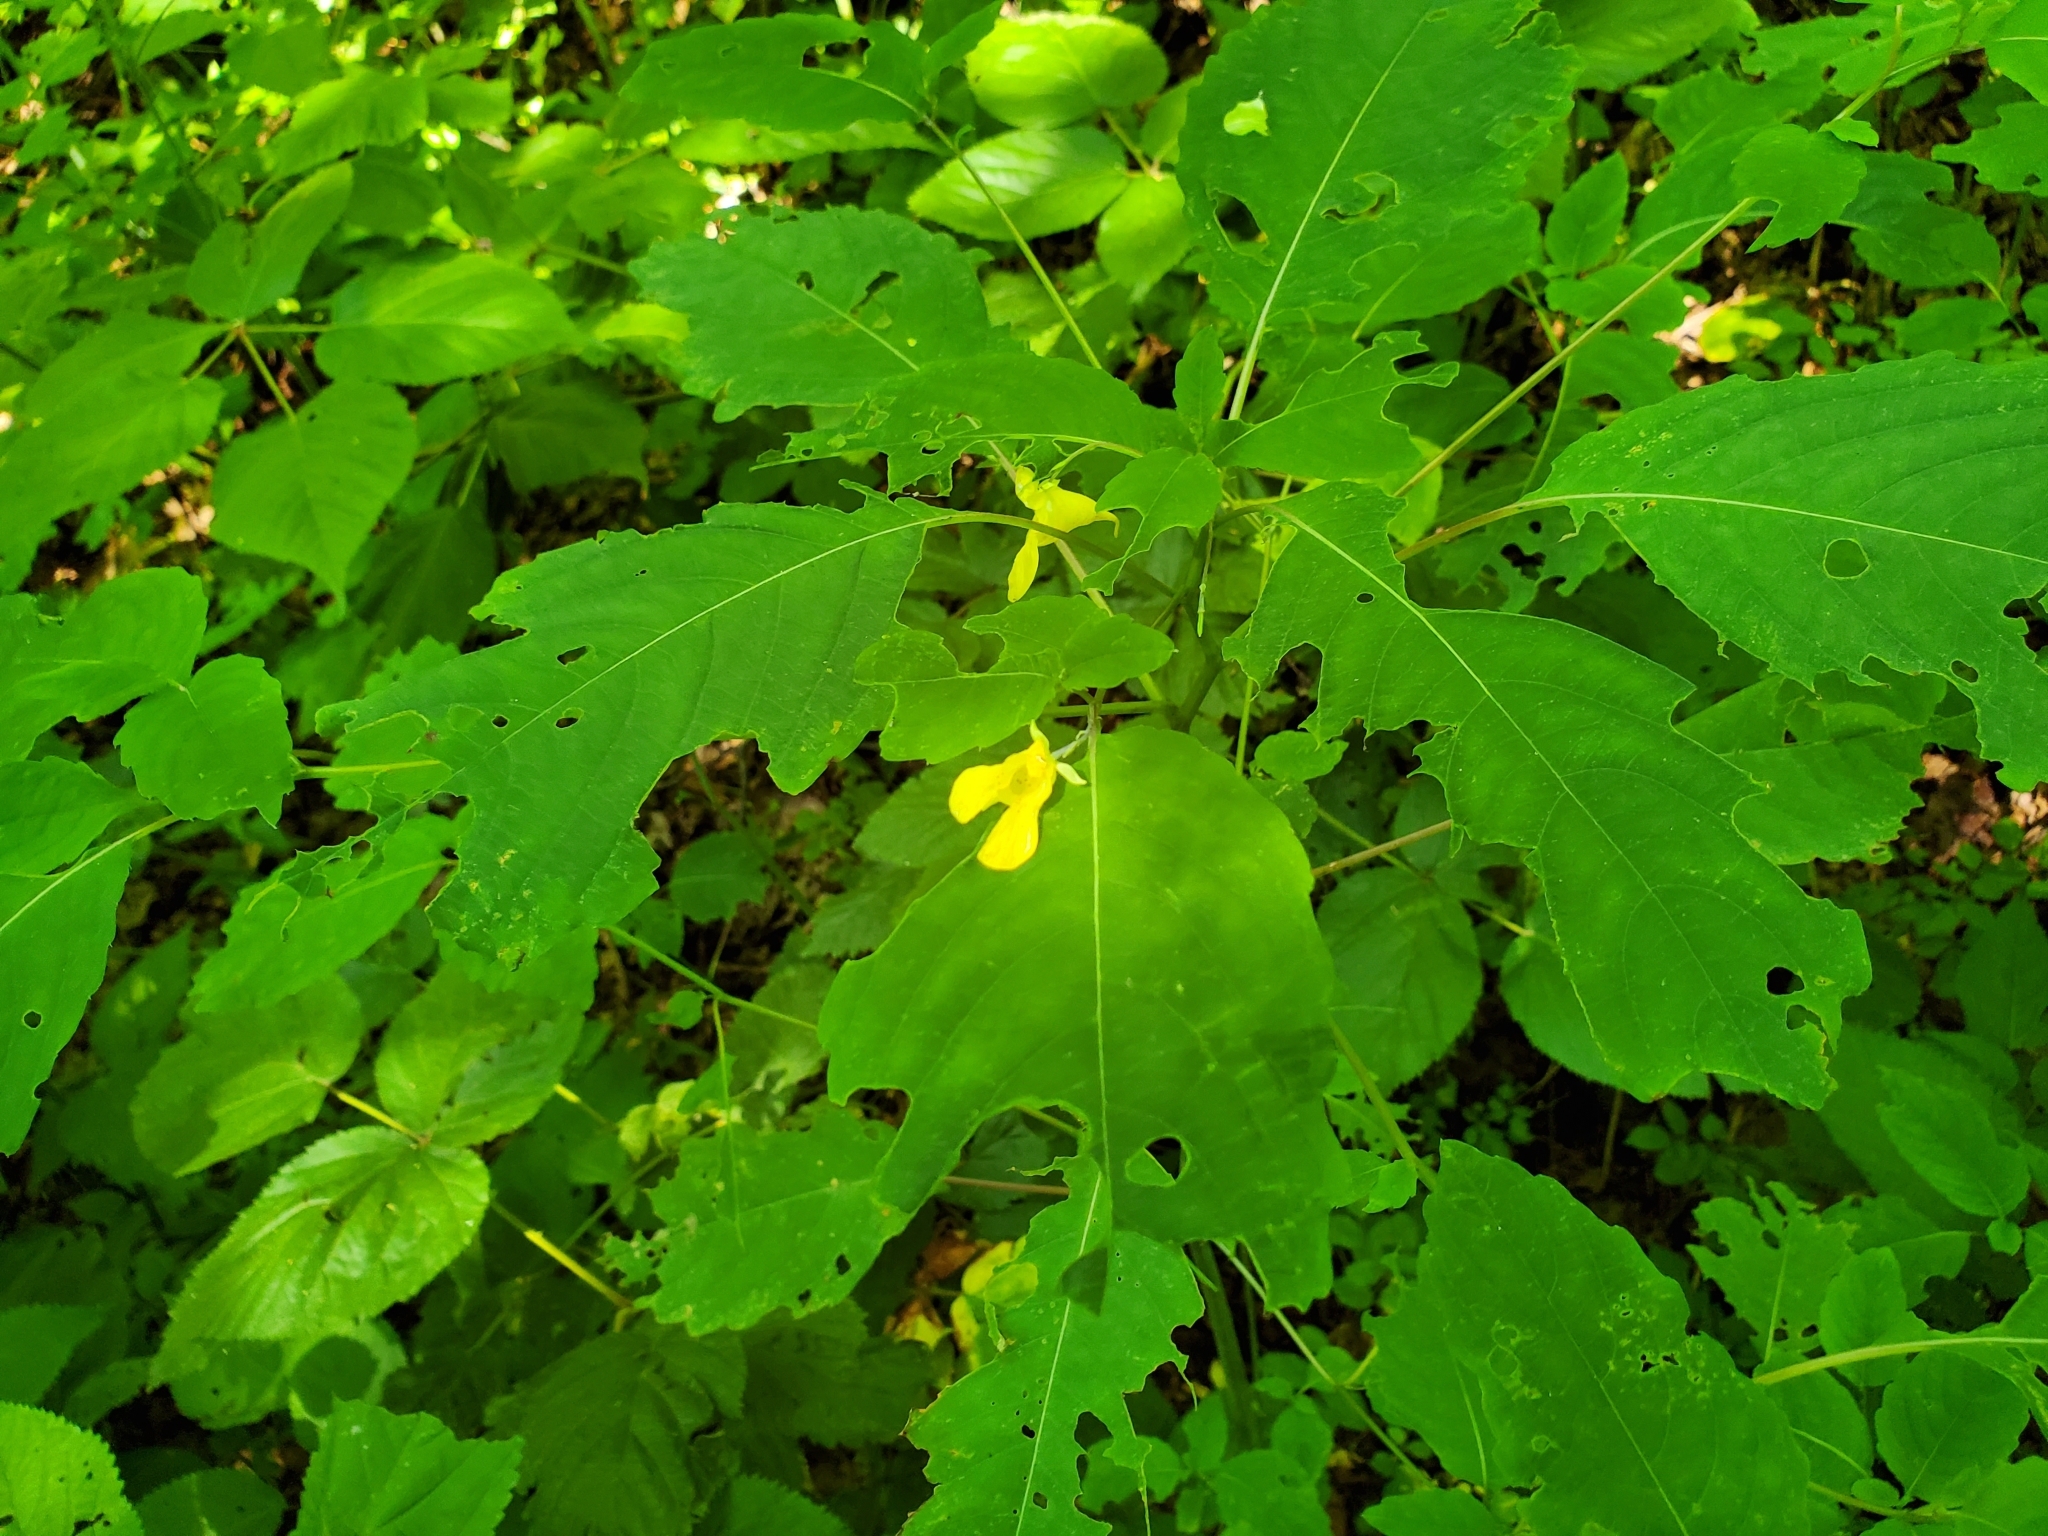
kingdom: Plantae
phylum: Tracheophyta
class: Magnoliopsida
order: Ericales
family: Balsaminaceae
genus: Impatiens
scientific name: Impatiens pallida
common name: Pale snapweed
